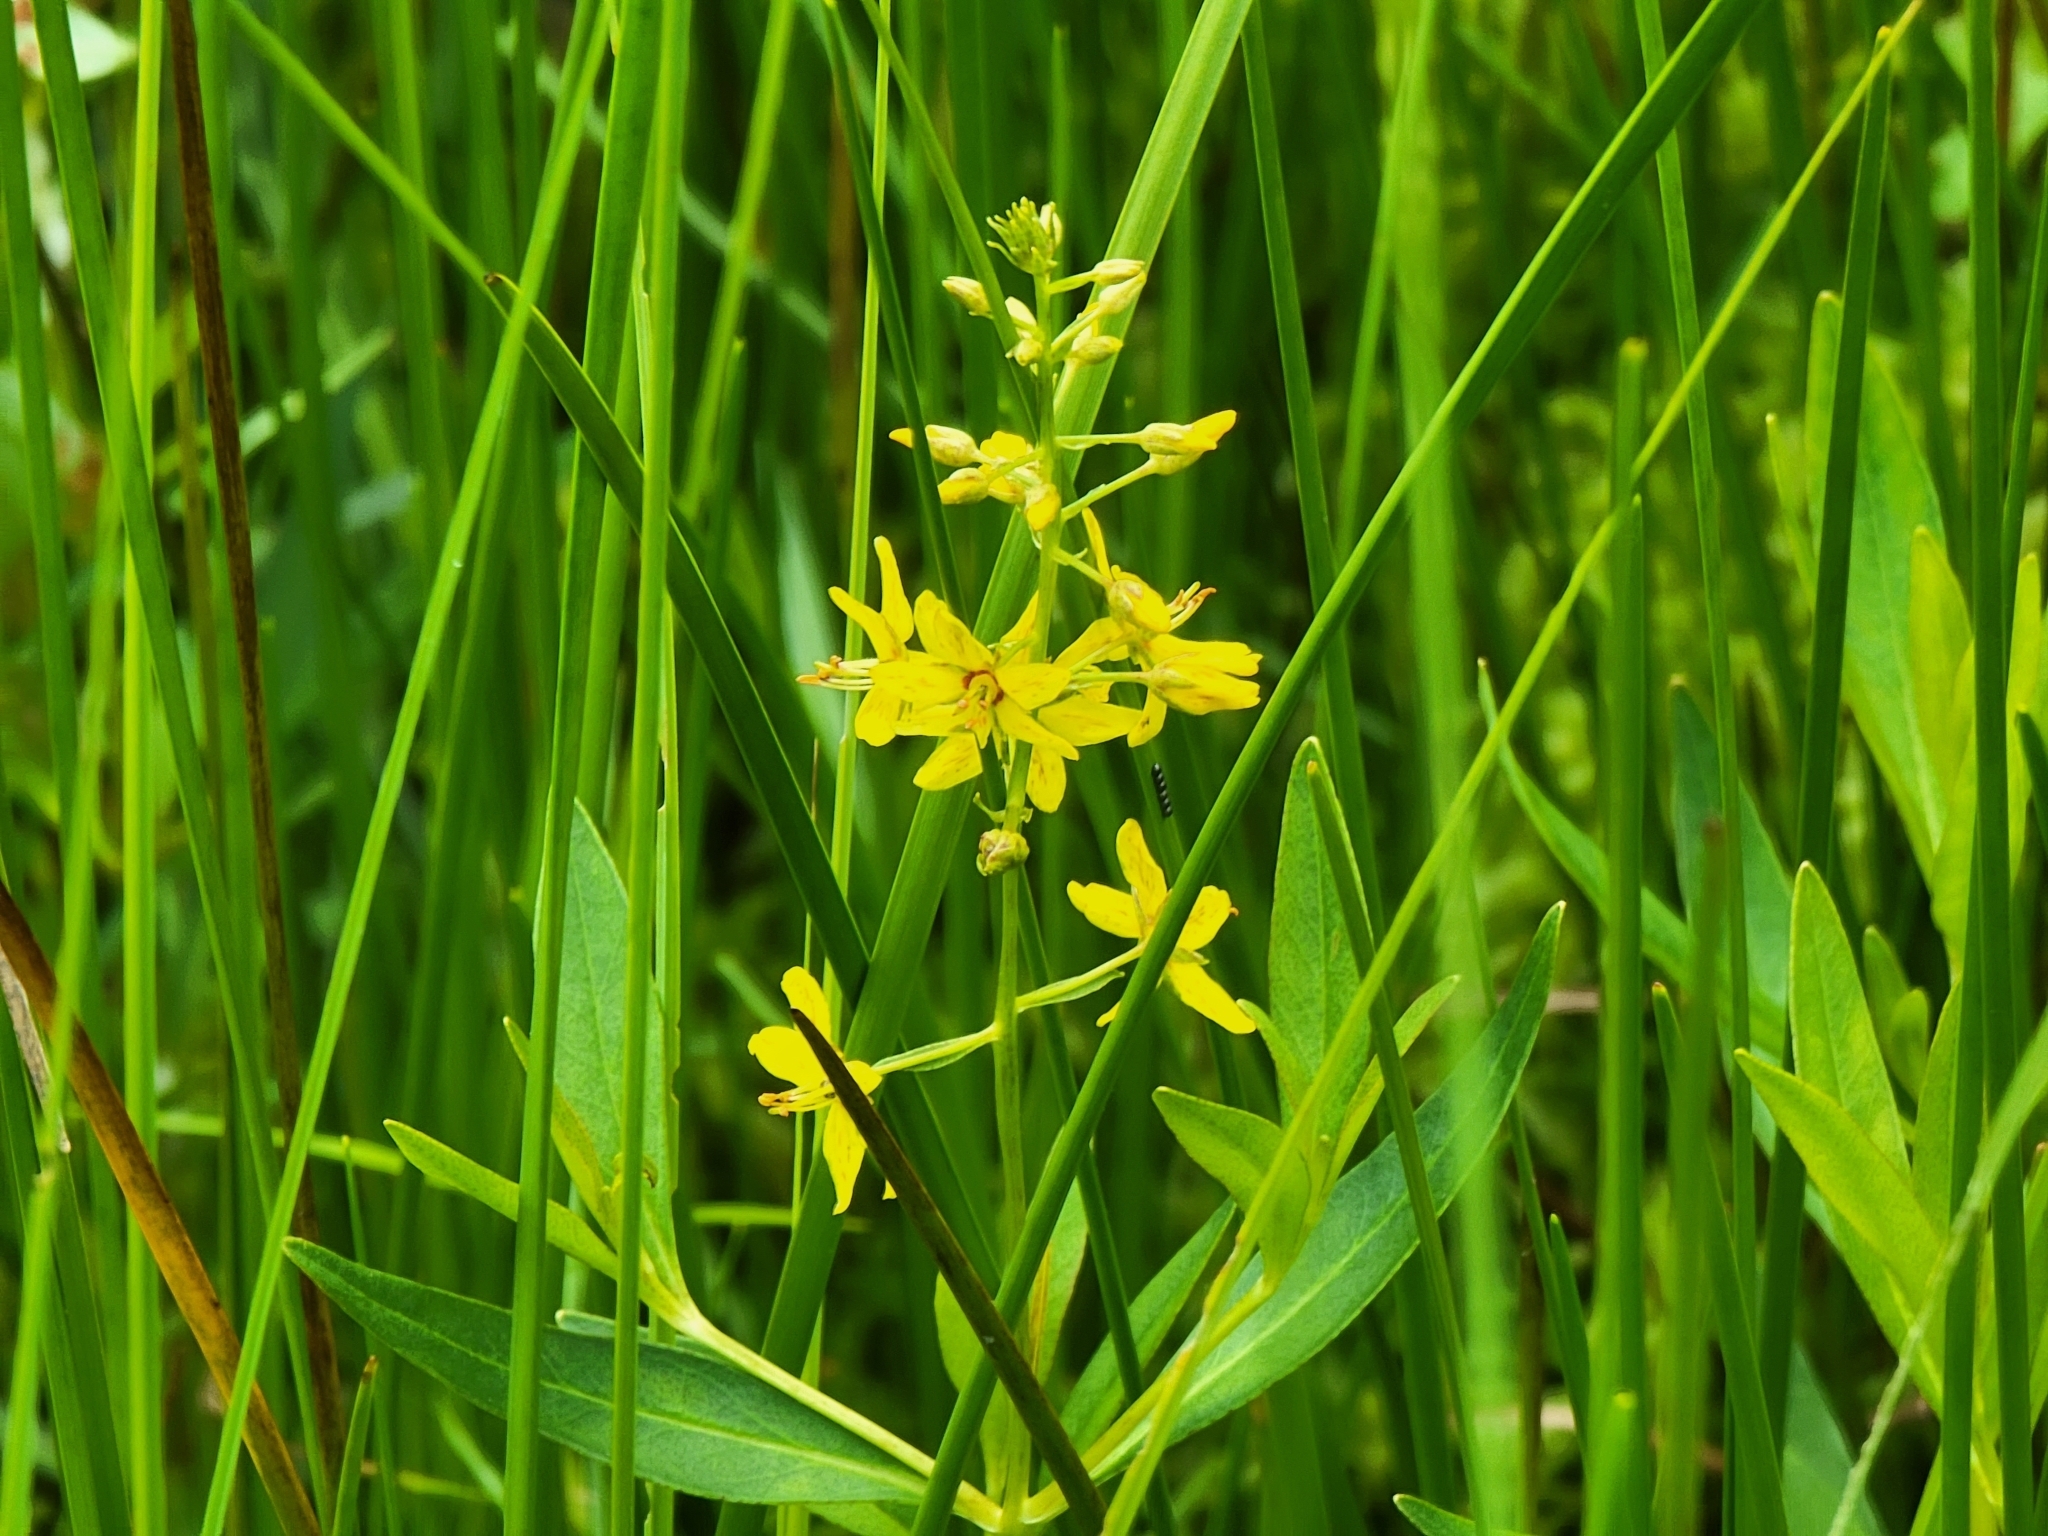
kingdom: Plantae
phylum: Tracheophyta
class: Magnoliopsida
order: Ericales
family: Primulaceae
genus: Lysimachia
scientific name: Lysimachia terrestris
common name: Lake loosestrife
